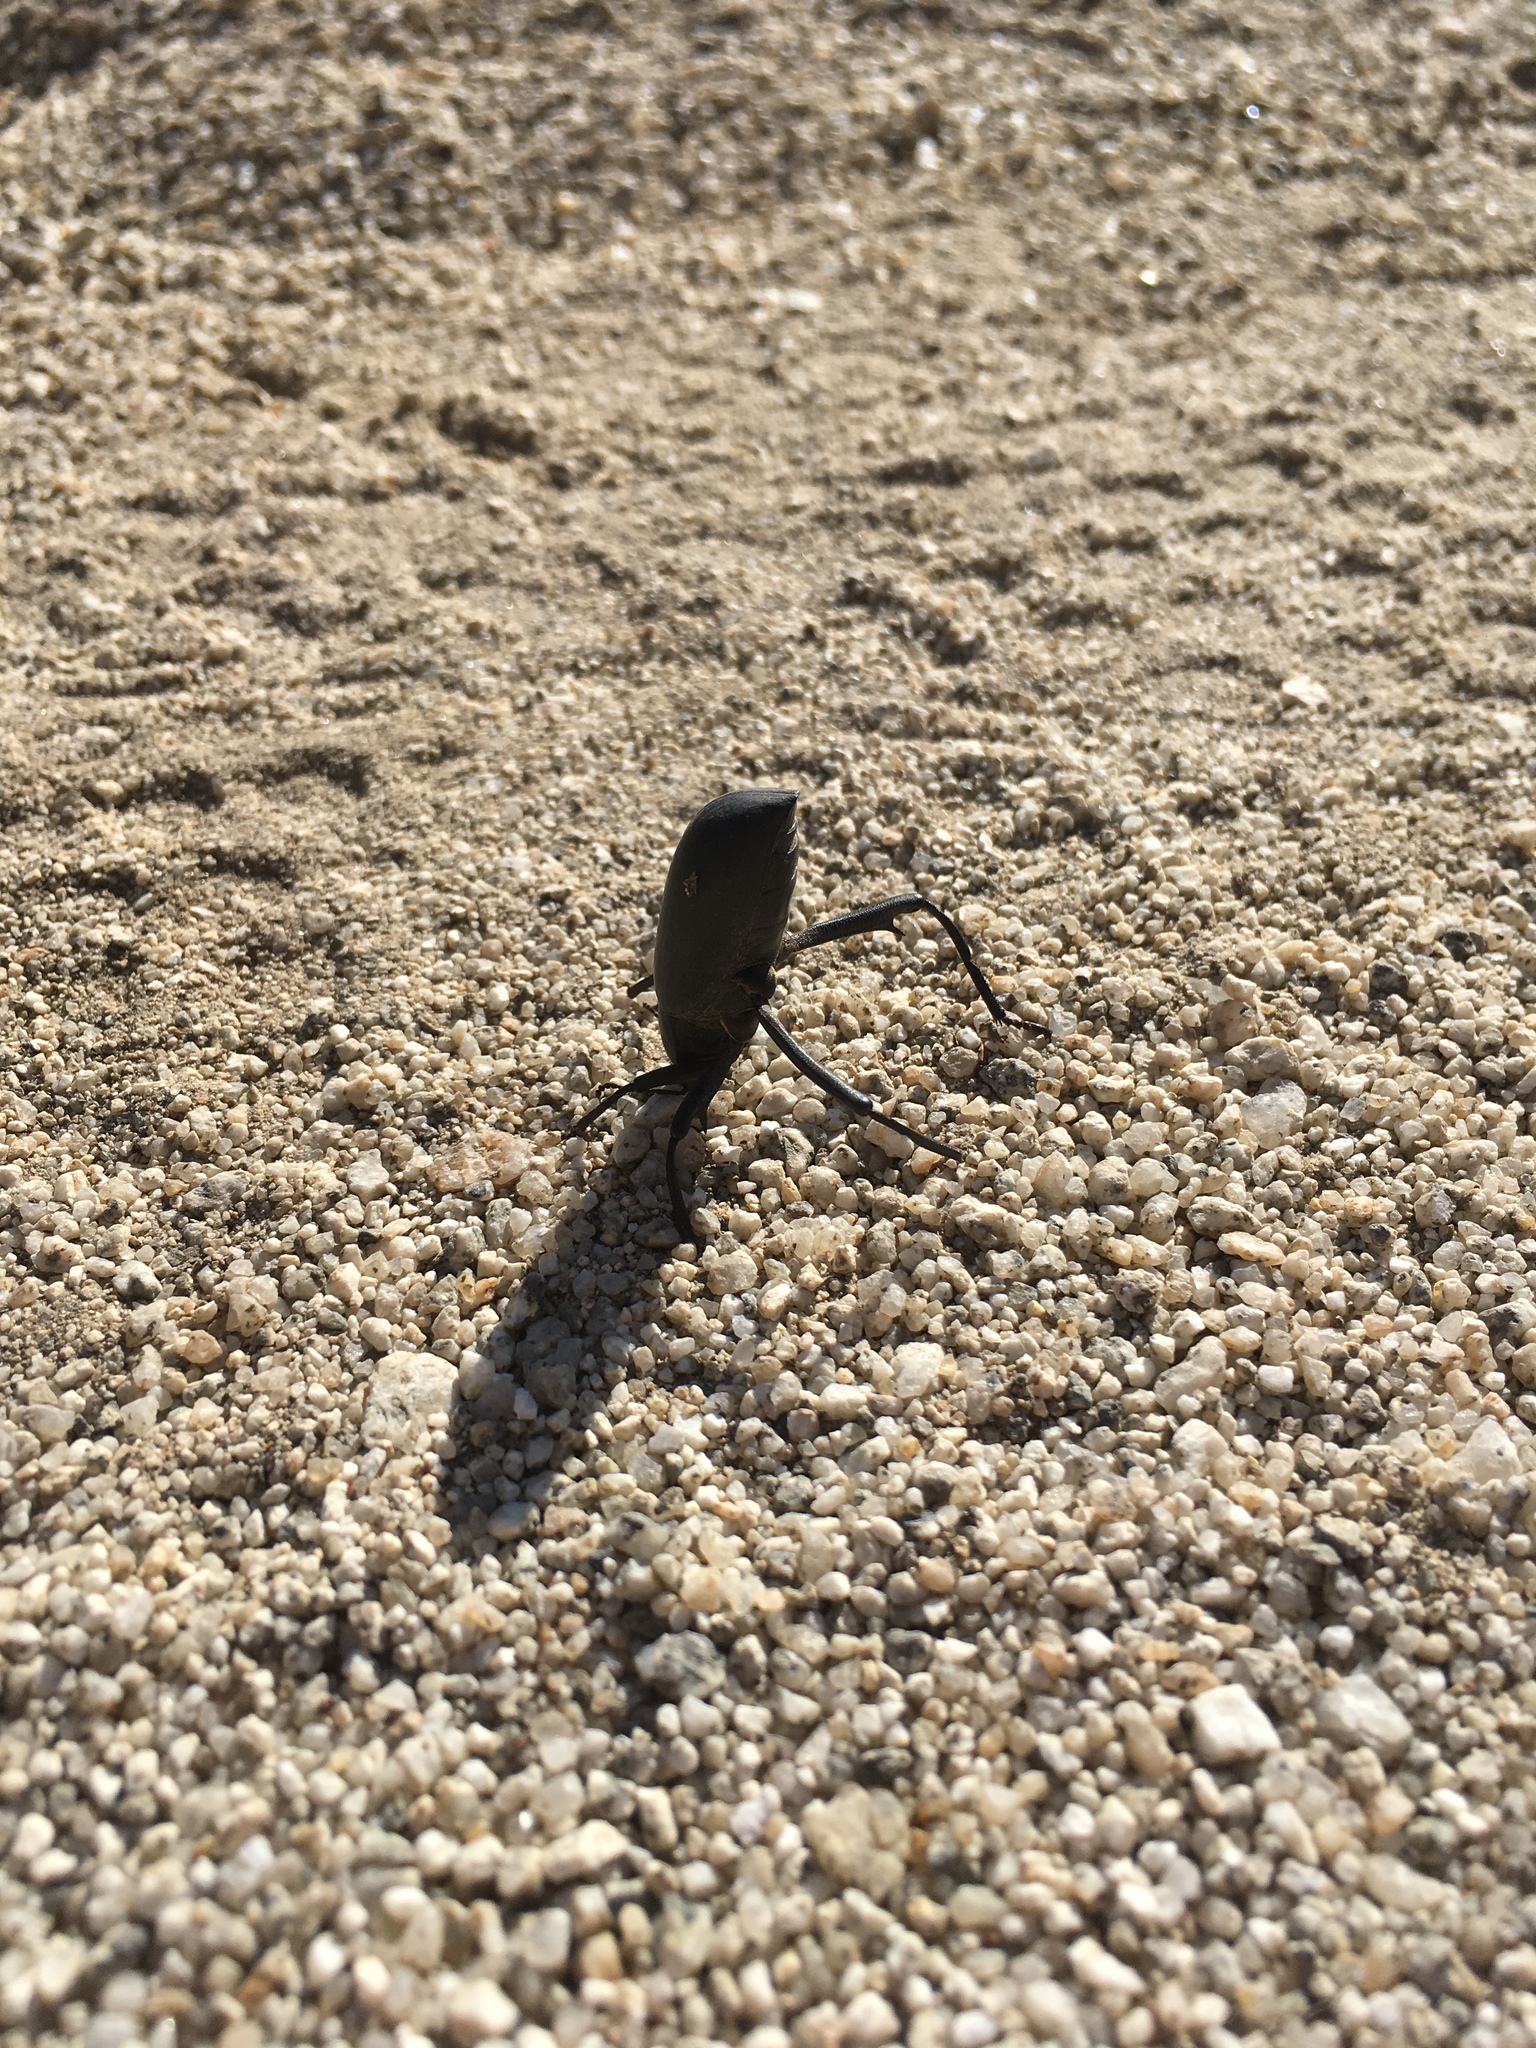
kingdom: Animalia
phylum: Arthropoda
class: Insecta
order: Coleoptera
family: Tenebrionidae
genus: Eleodes
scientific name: Eleodes armata
